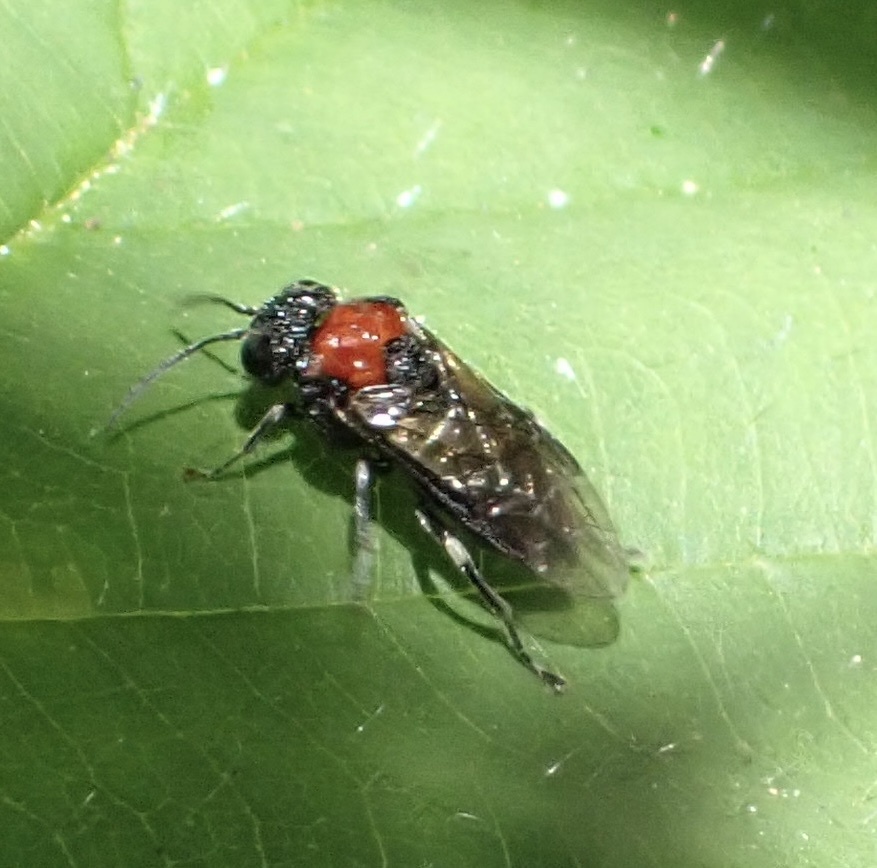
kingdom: Animalia
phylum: Arthropoda
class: Insecta
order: Hymenoptera
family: Tenthredinidae
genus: Eriocampa
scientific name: Eriocampa ovata
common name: Alder wooly sawfly
